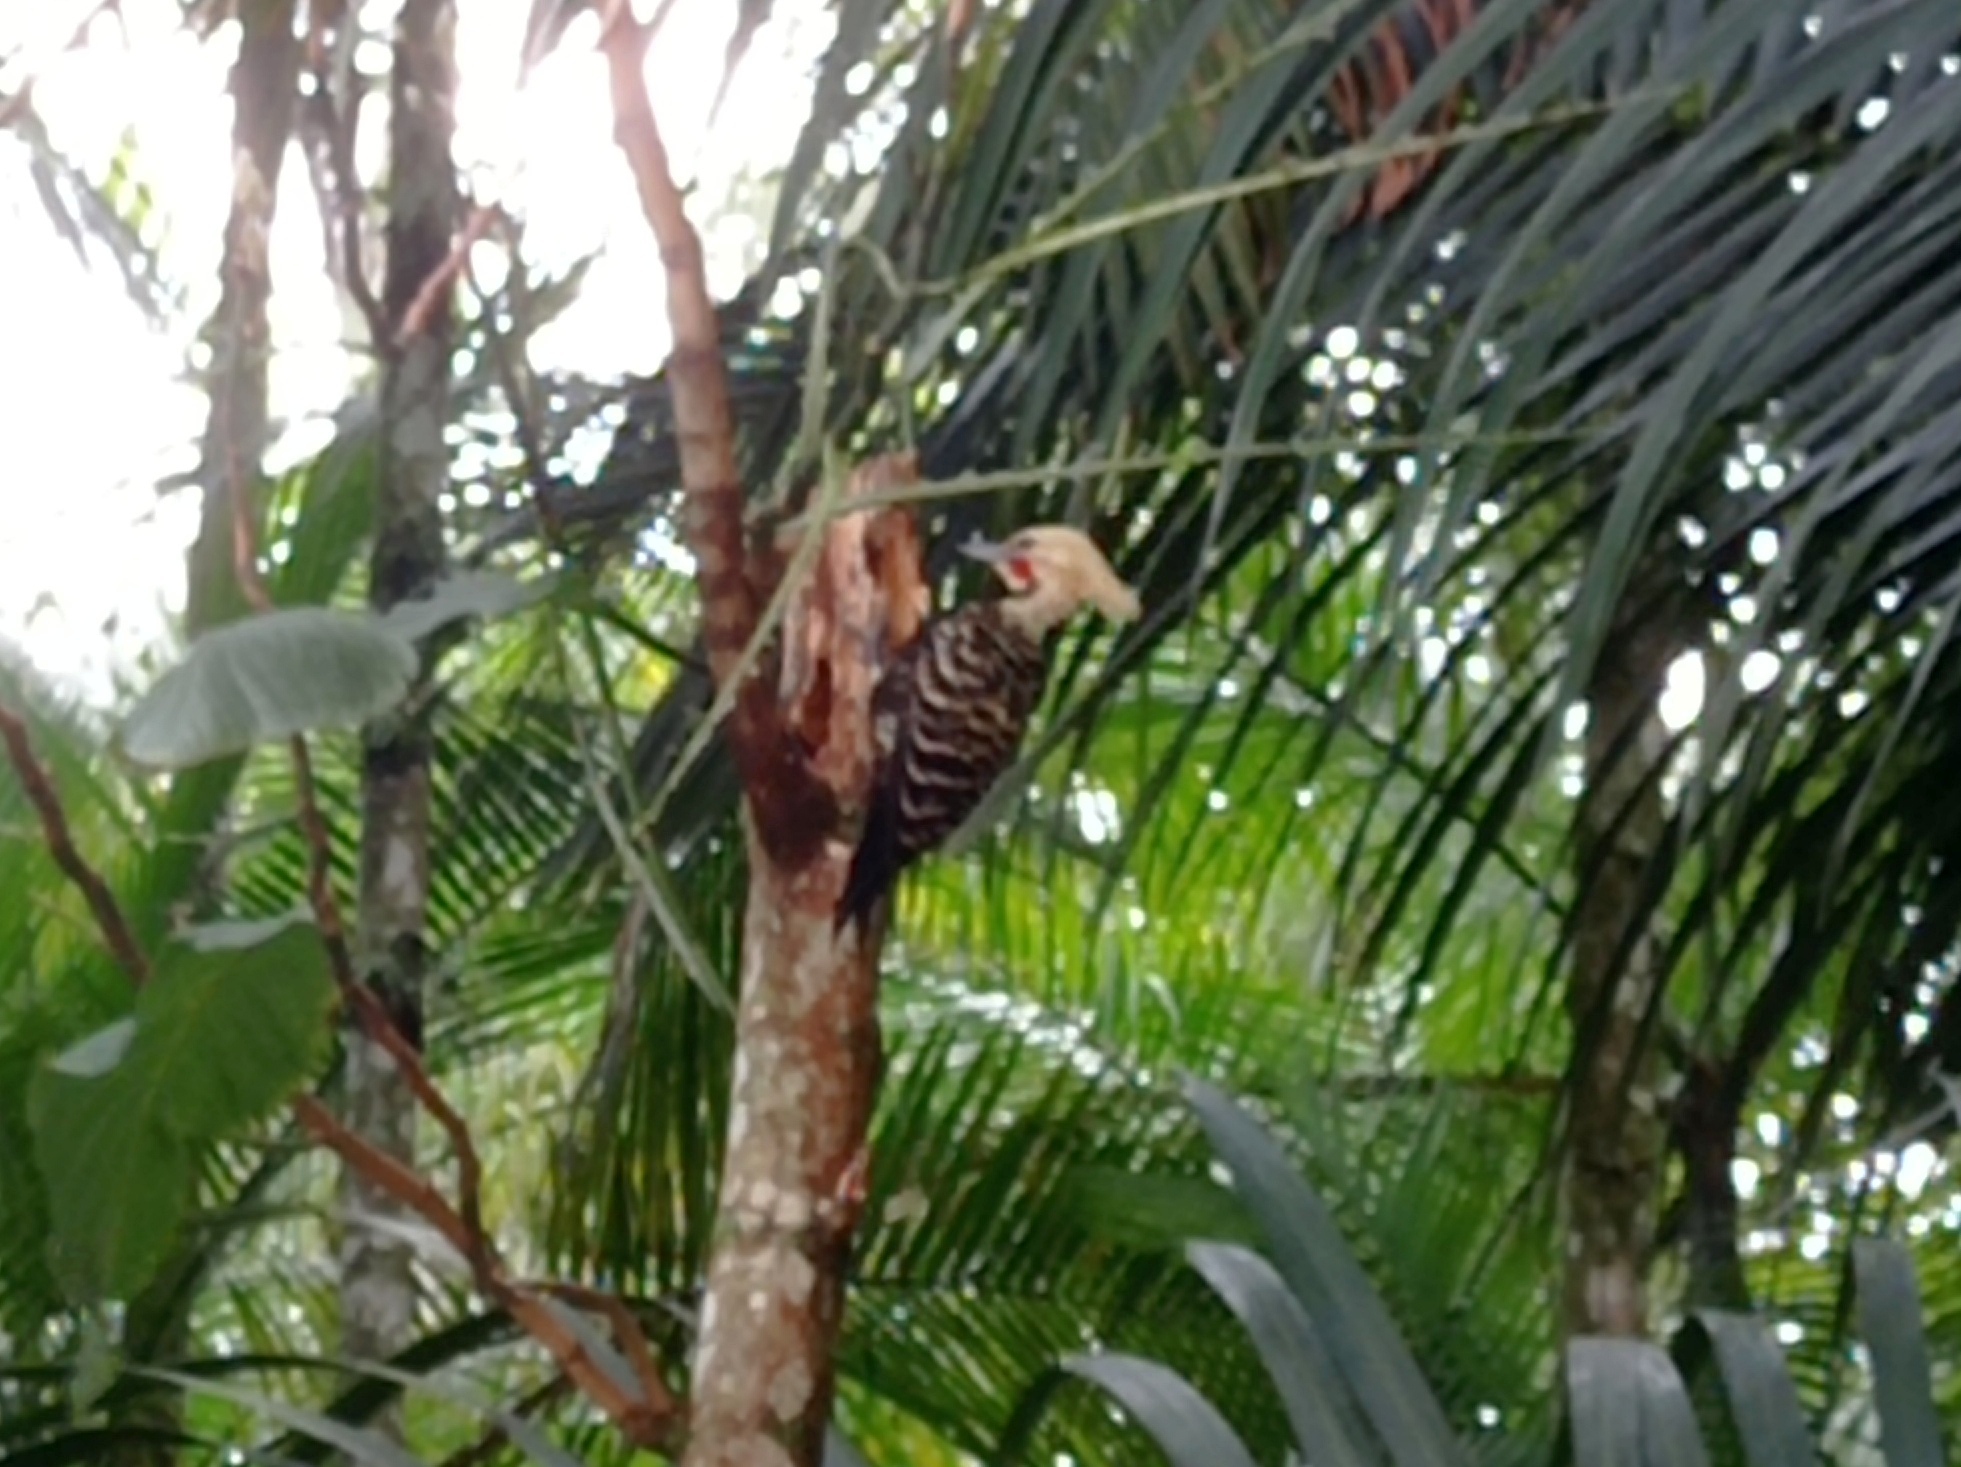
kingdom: Animalia
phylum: Chordata
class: Aves
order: Piciformes
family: Picidae
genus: Celeus
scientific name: Celeus flavescens
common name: Blond-crested woodpecker
